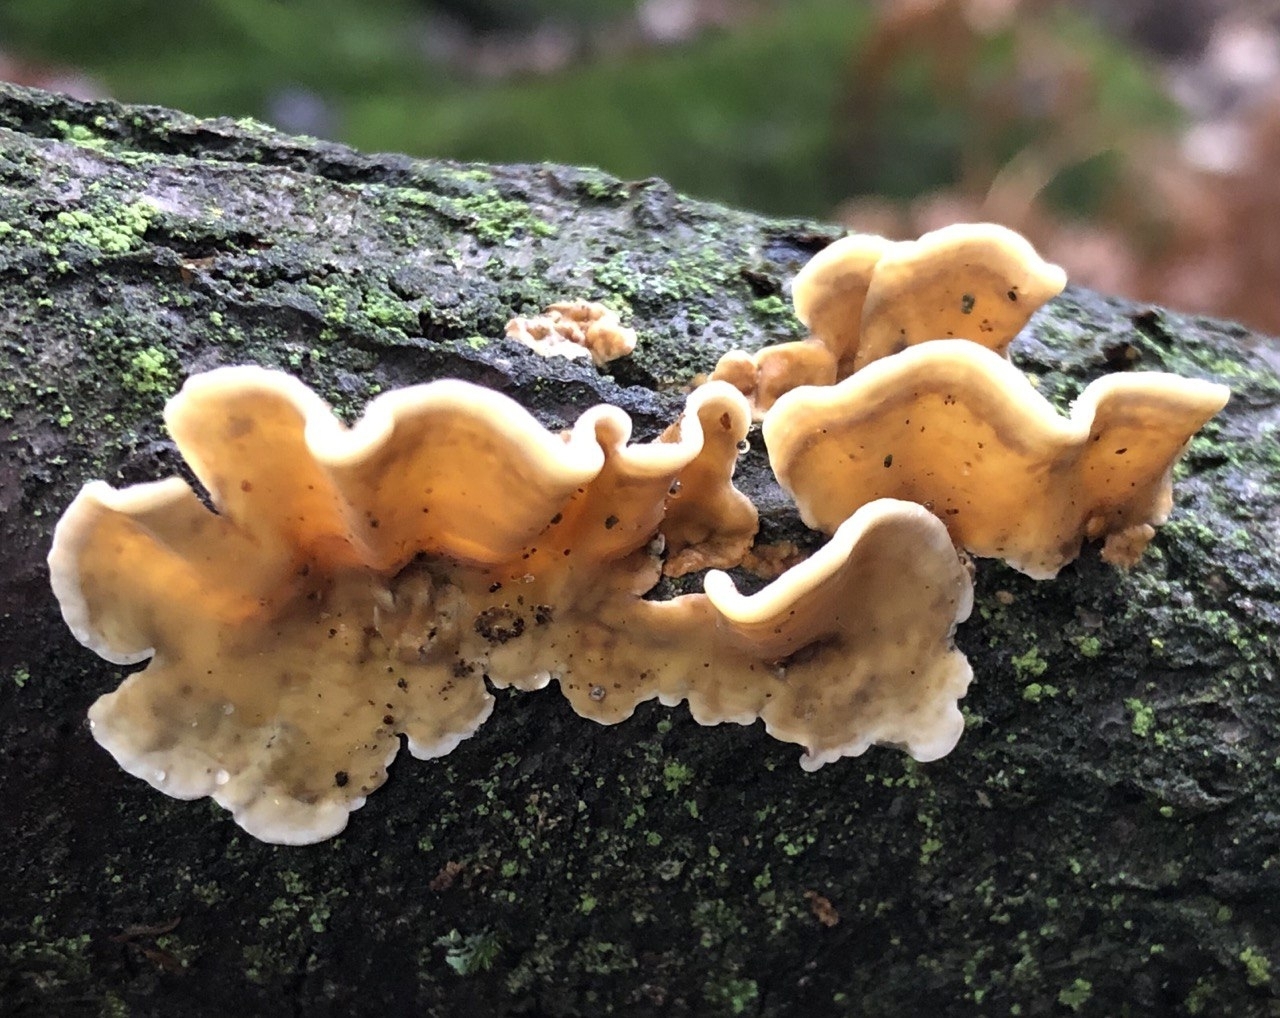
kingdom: Fungi
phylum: Basidiomycota
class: Agaricomycetes
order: Russulales
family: Stereaceae
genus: Stereum
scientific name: Stereum hirsutum
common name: Hairy curtain crust
